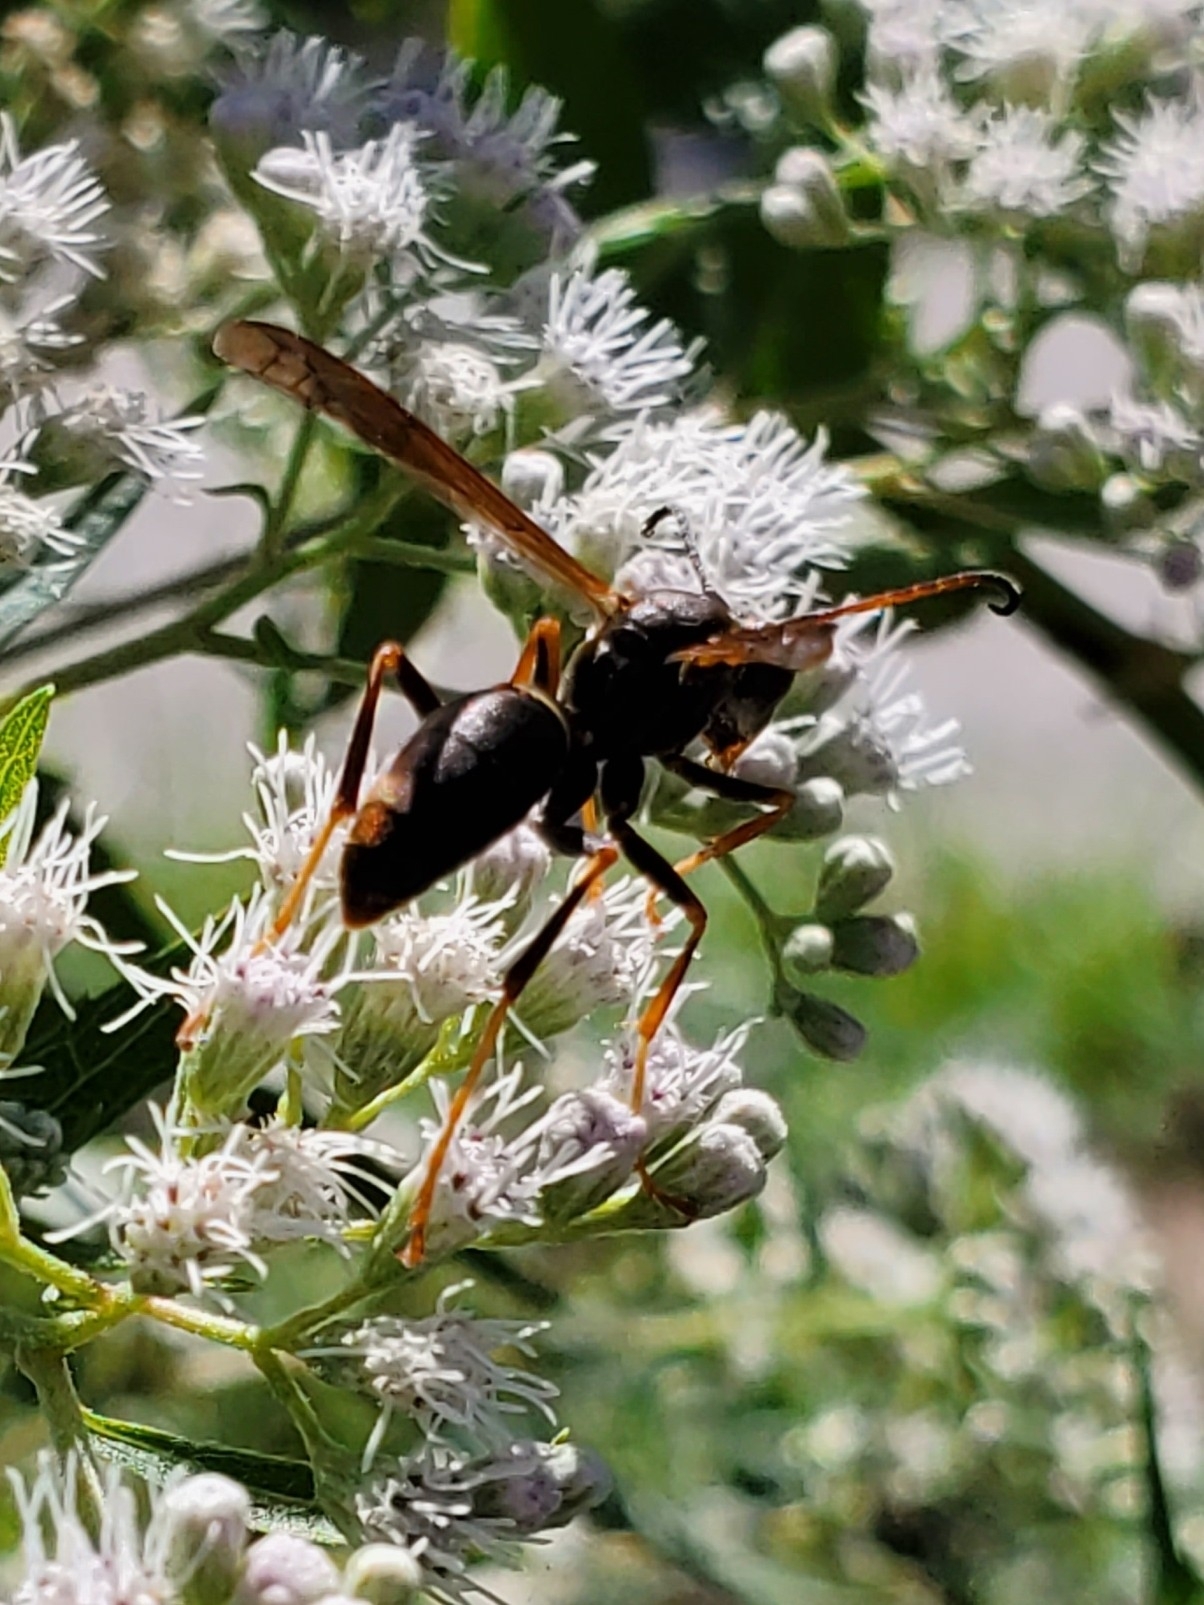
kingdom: Animalia
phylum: Arthropoda
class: Insecta
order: Hymenoptera
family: Eumenidae
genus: Polistes
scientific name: Polistes fuscatus
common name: Dark paper wasp
